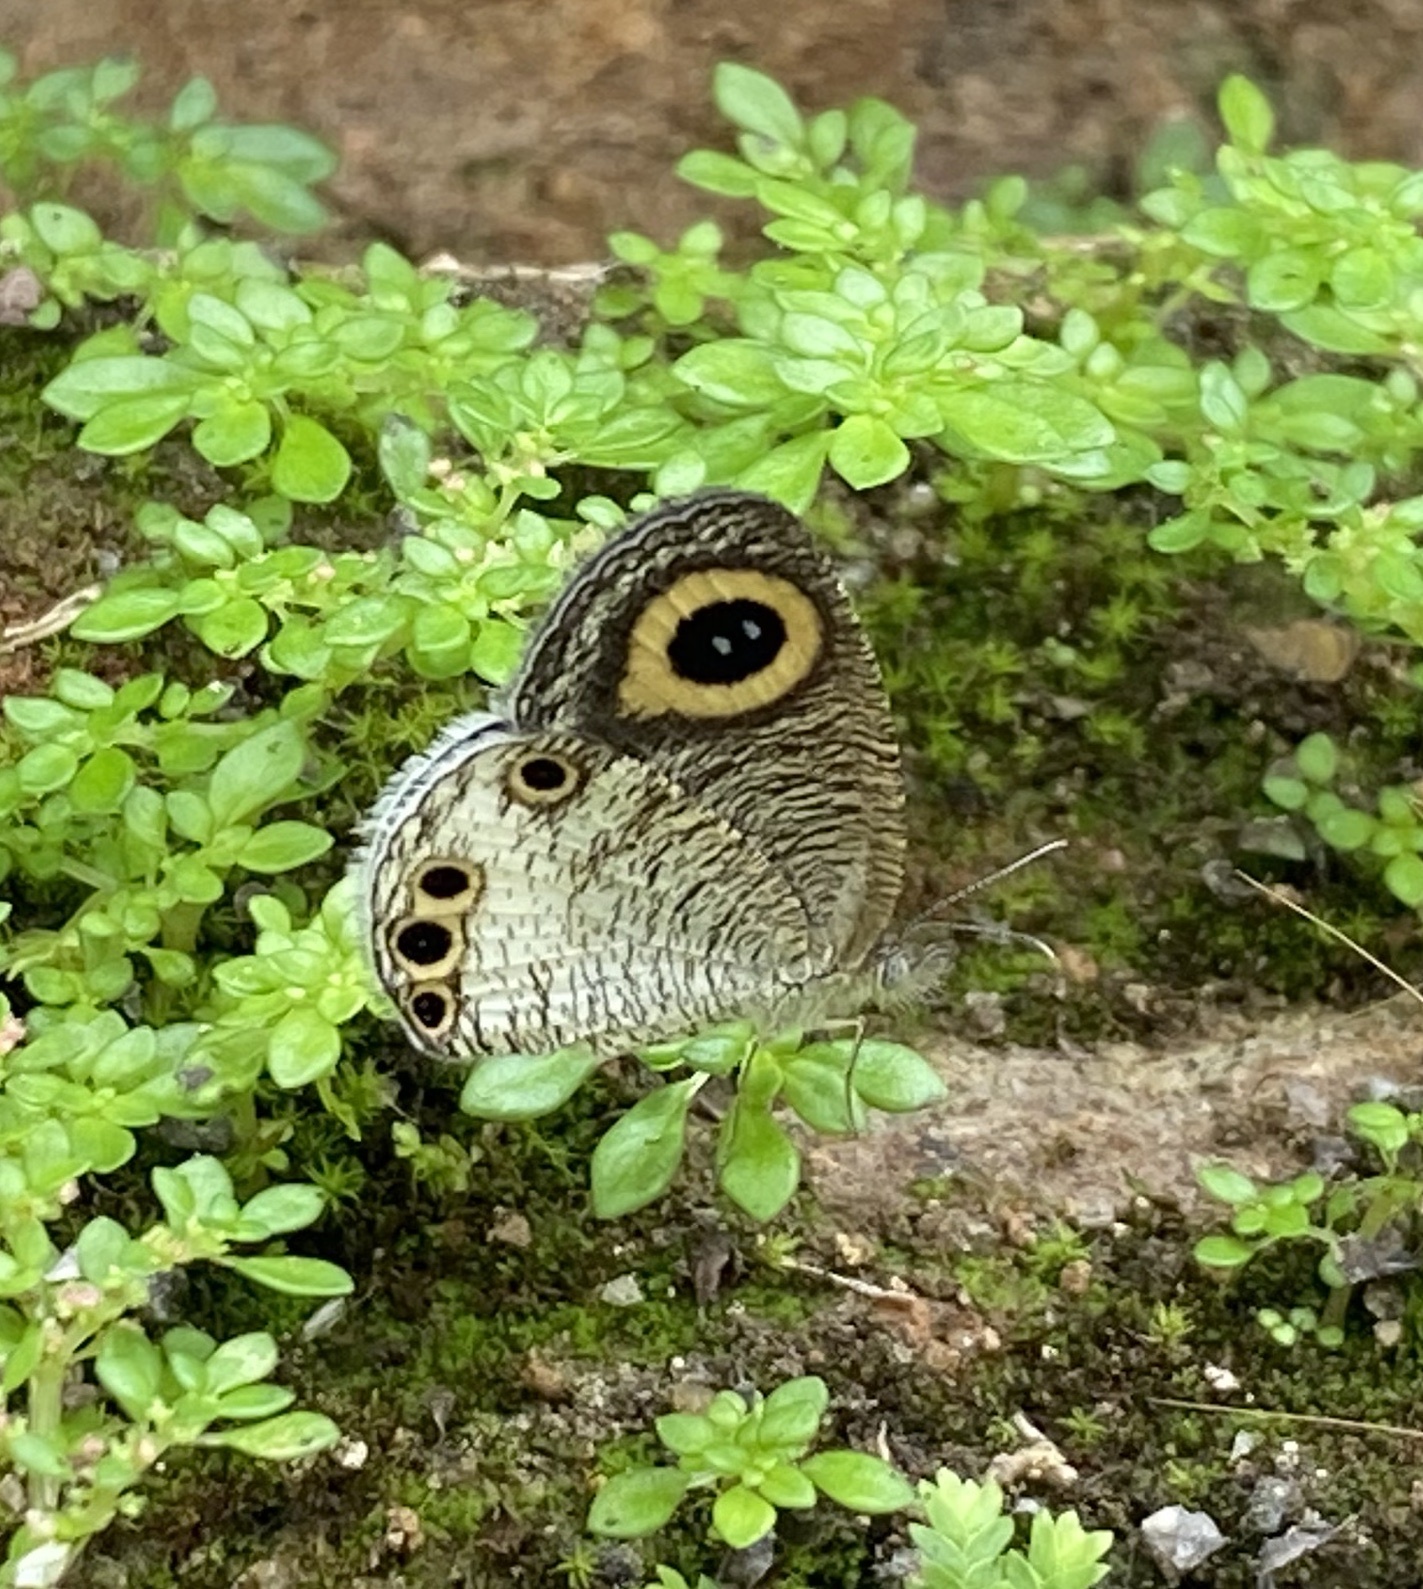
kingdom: Animalia
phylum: Arthropoda
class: Insecta
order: Lepidoptera
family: Nymphalidae
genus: Ypthima
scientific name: Ypthima huebneri
